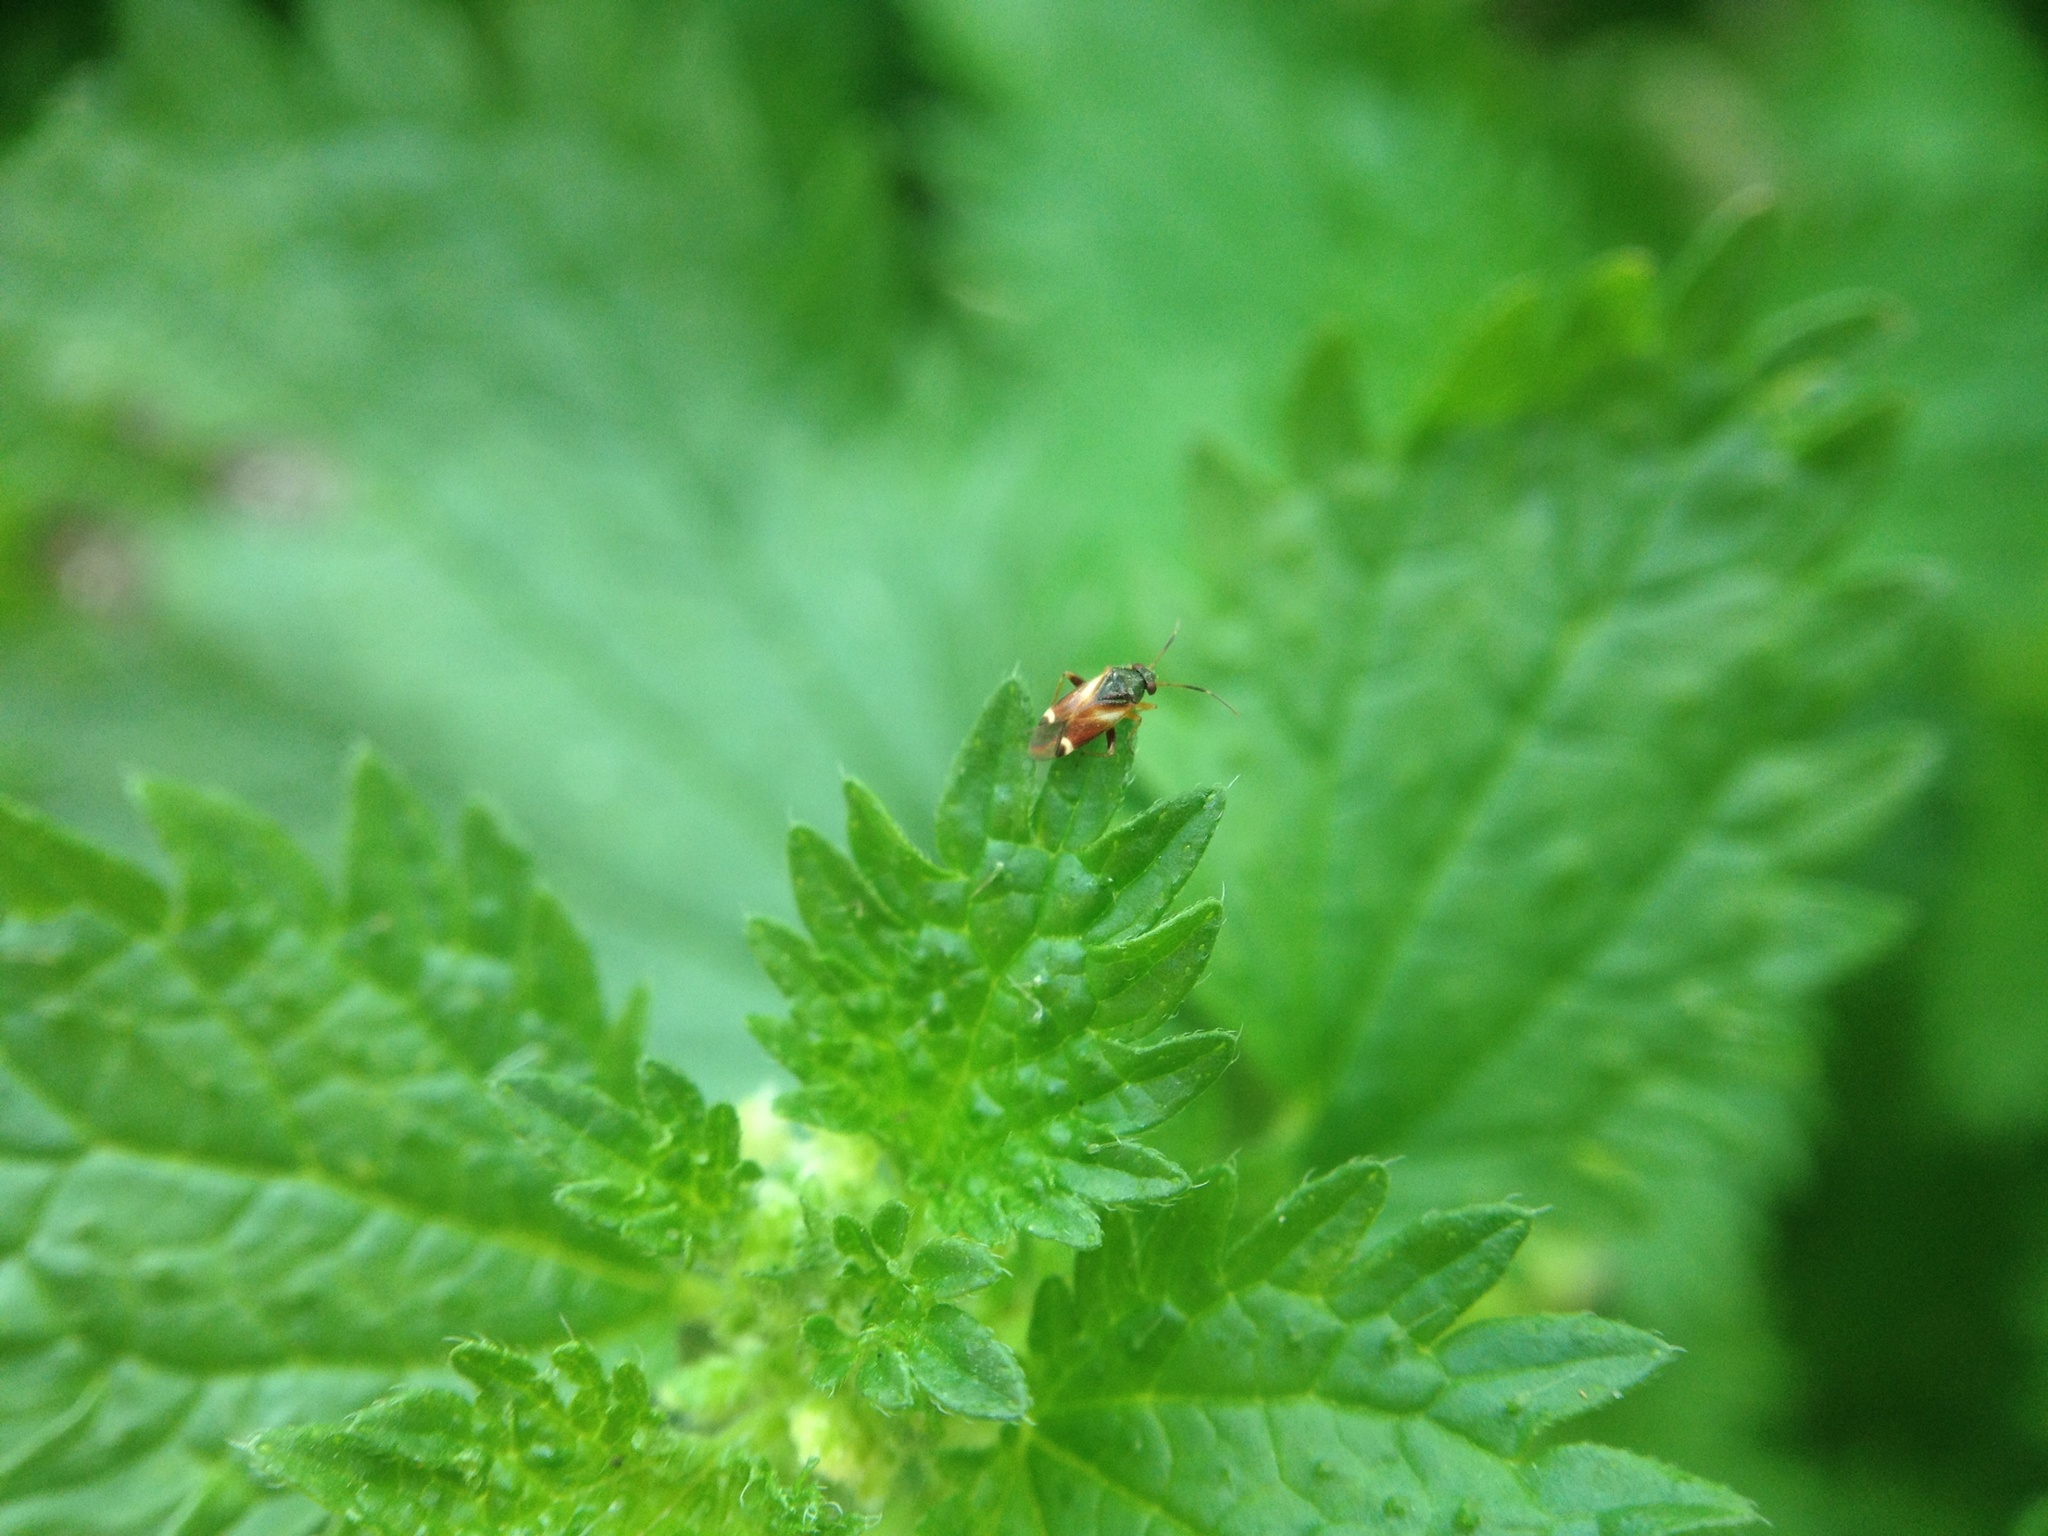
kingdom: Animalia
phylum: Arthropoda
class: Insecta
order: Hemiptera
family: Miridae
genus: Ausejanus
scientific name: Ausejanus albisignatus
